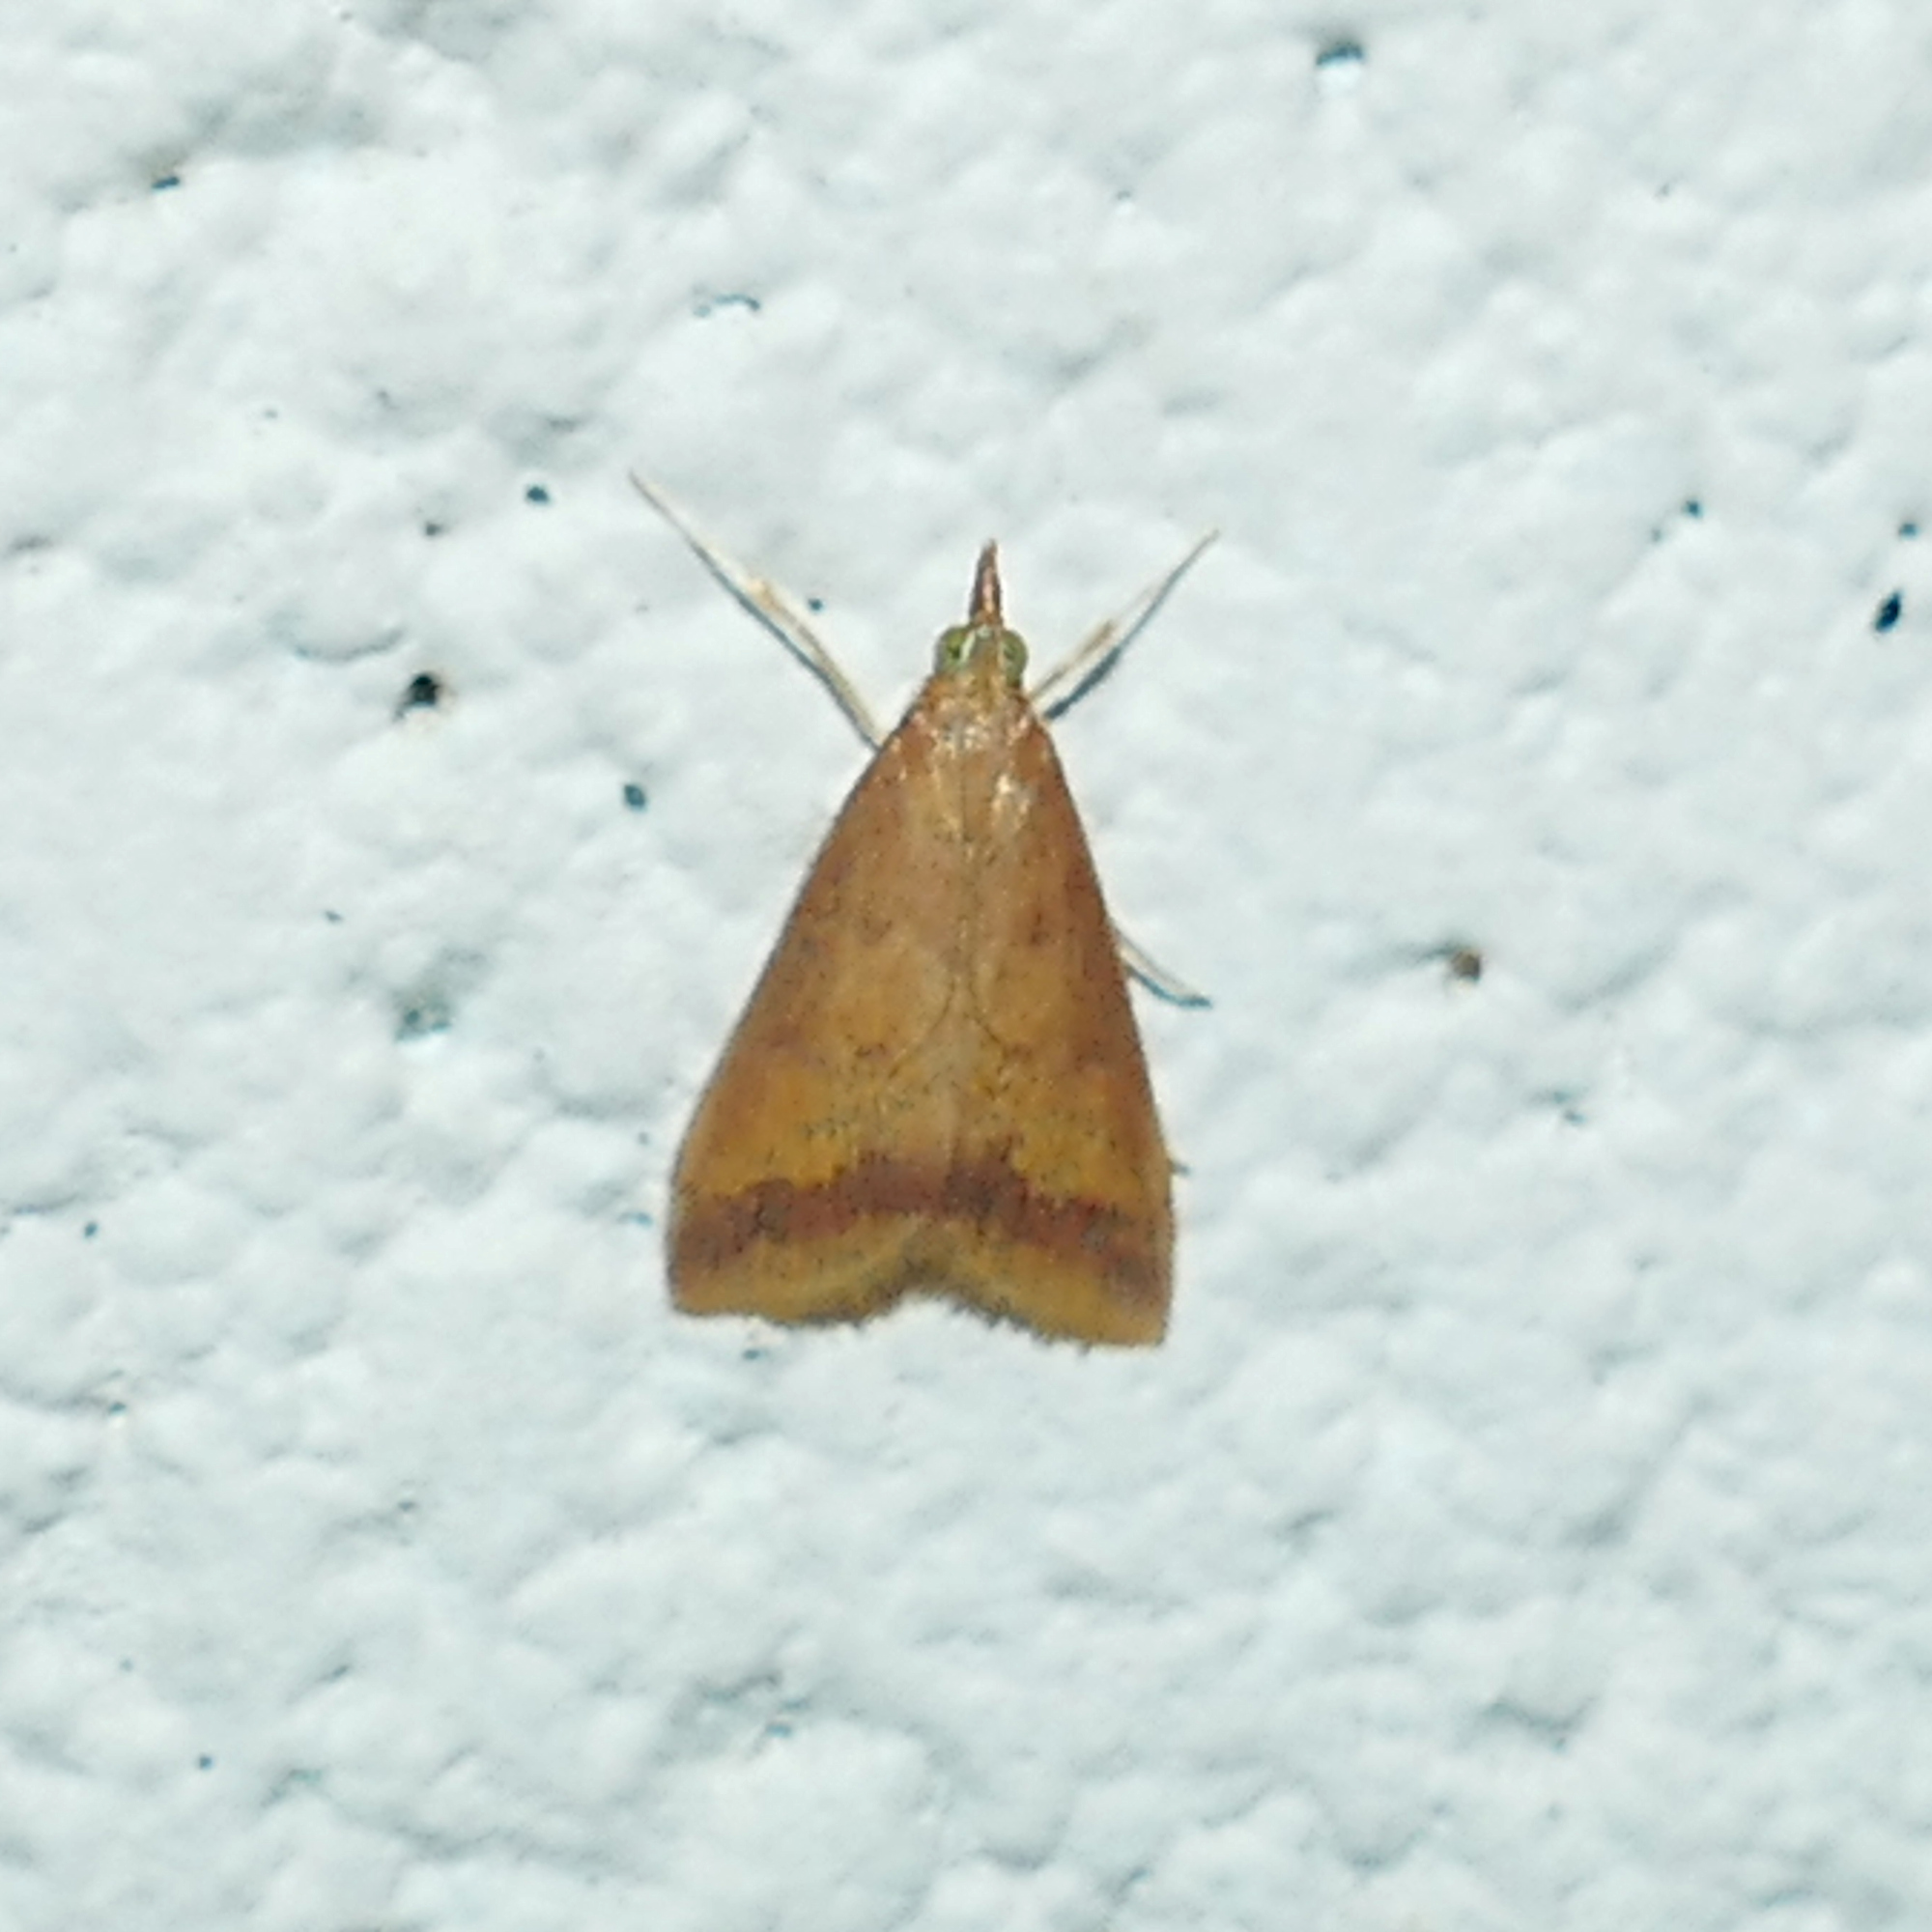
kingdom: Animalia
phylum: Arthropoda
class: Insecta
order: Lepidoptera
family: Crambidae
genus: Hyalorista
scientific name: Hyalorista taeniolalis
